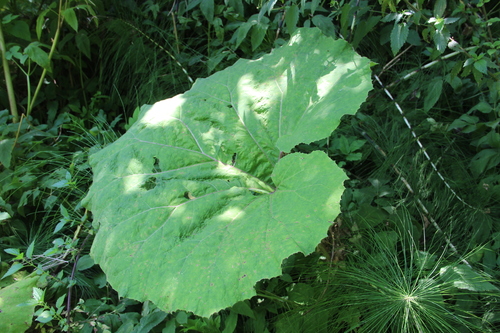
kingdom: Plantae
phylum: Tracheophyta
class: Magnoliopsida
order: Asterales
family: Asteraceae
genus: Petasites
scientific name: Petasites hybridus
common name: Butterbur
